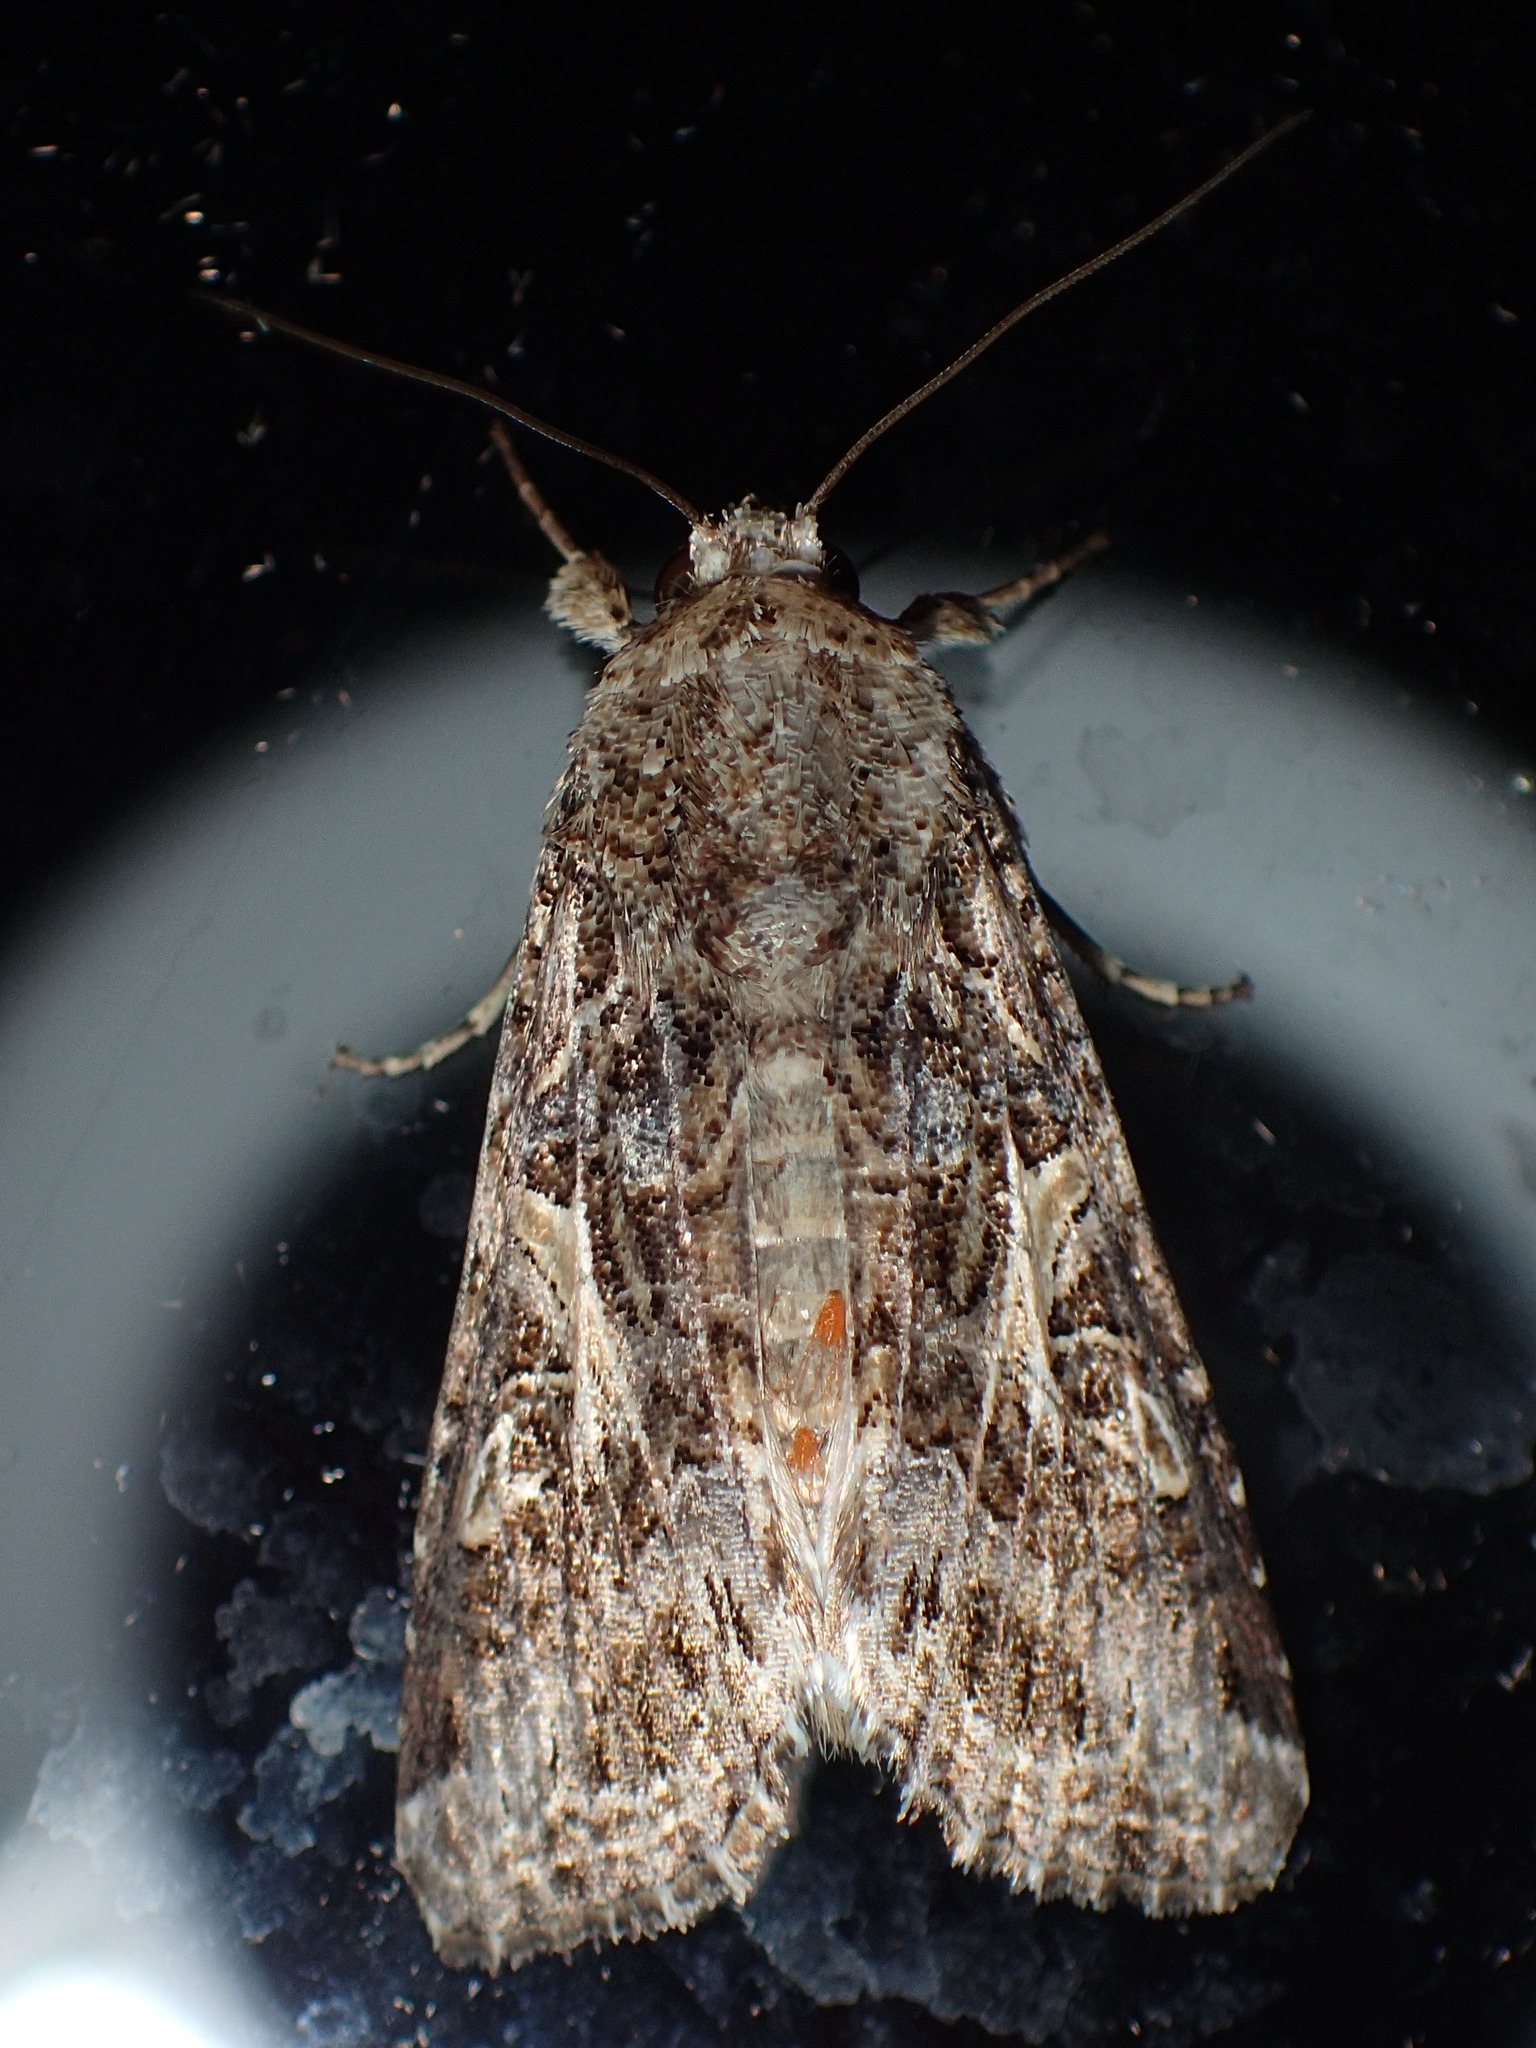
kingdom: Animalia
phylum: Arthropoda
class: Insecta
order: Lepidoptera
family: Noctuidae
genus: Spodoptera
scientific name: Spodoptera ornithogalli
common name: Yellow-striped armyworm
